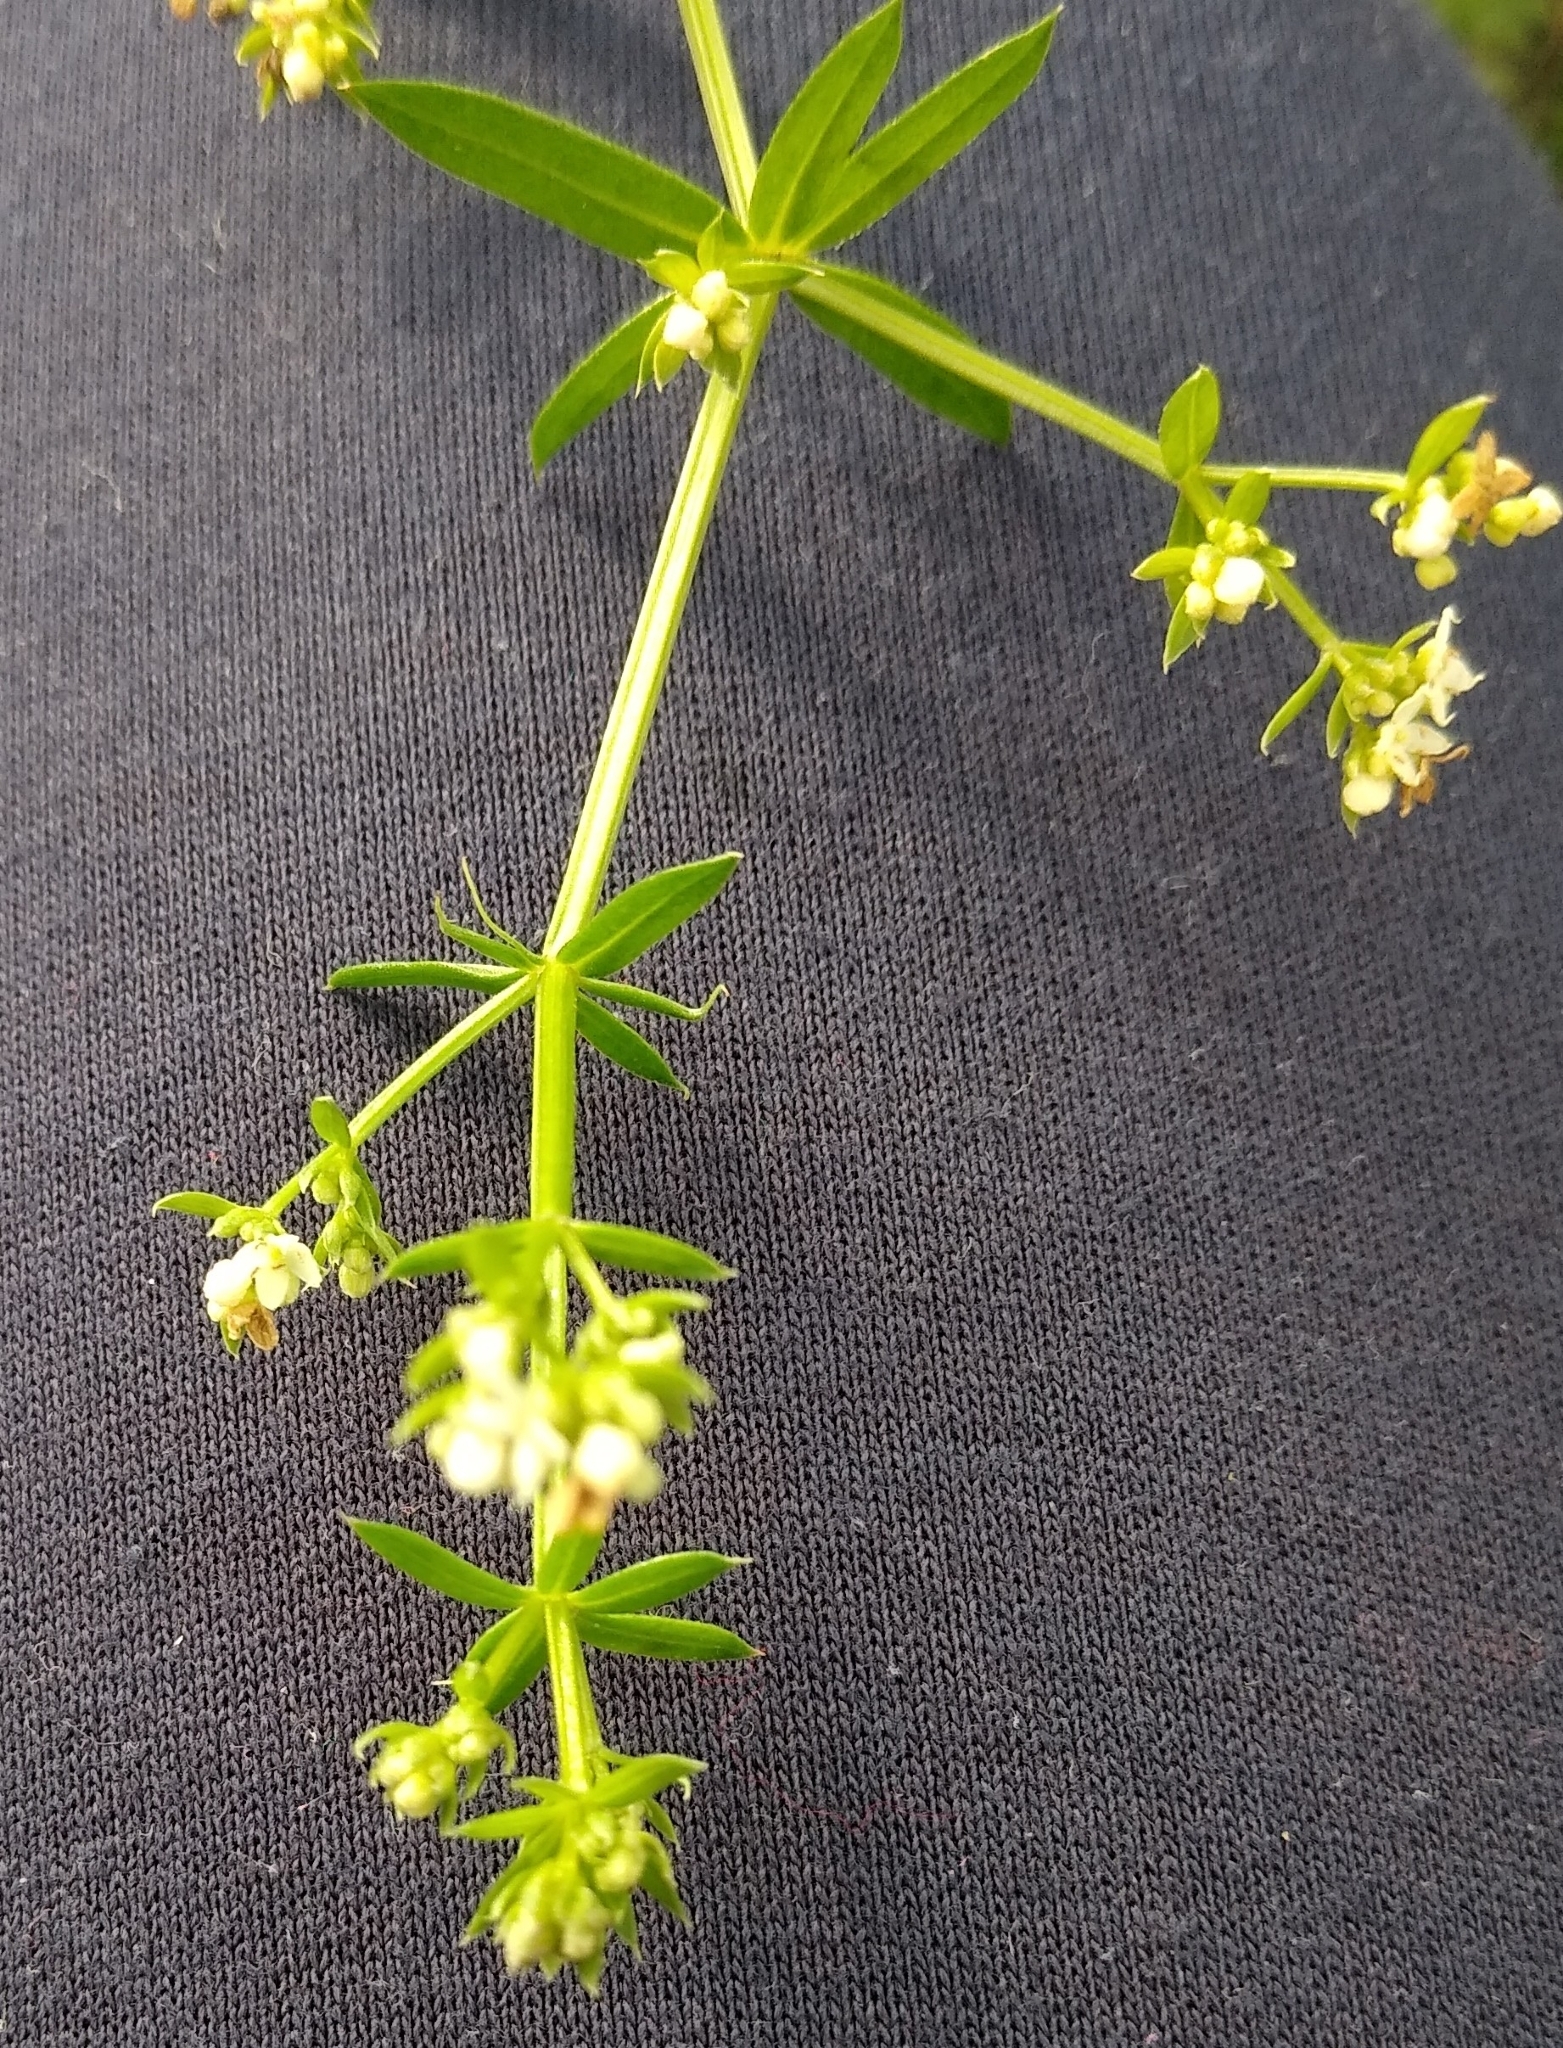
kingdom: Plantae
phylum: Tracheophyta
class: Magnoliopsida
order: Gentianales
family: Rubiaceae
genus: Galium
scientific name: Galium humifusum
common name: Spreading bedstraw
